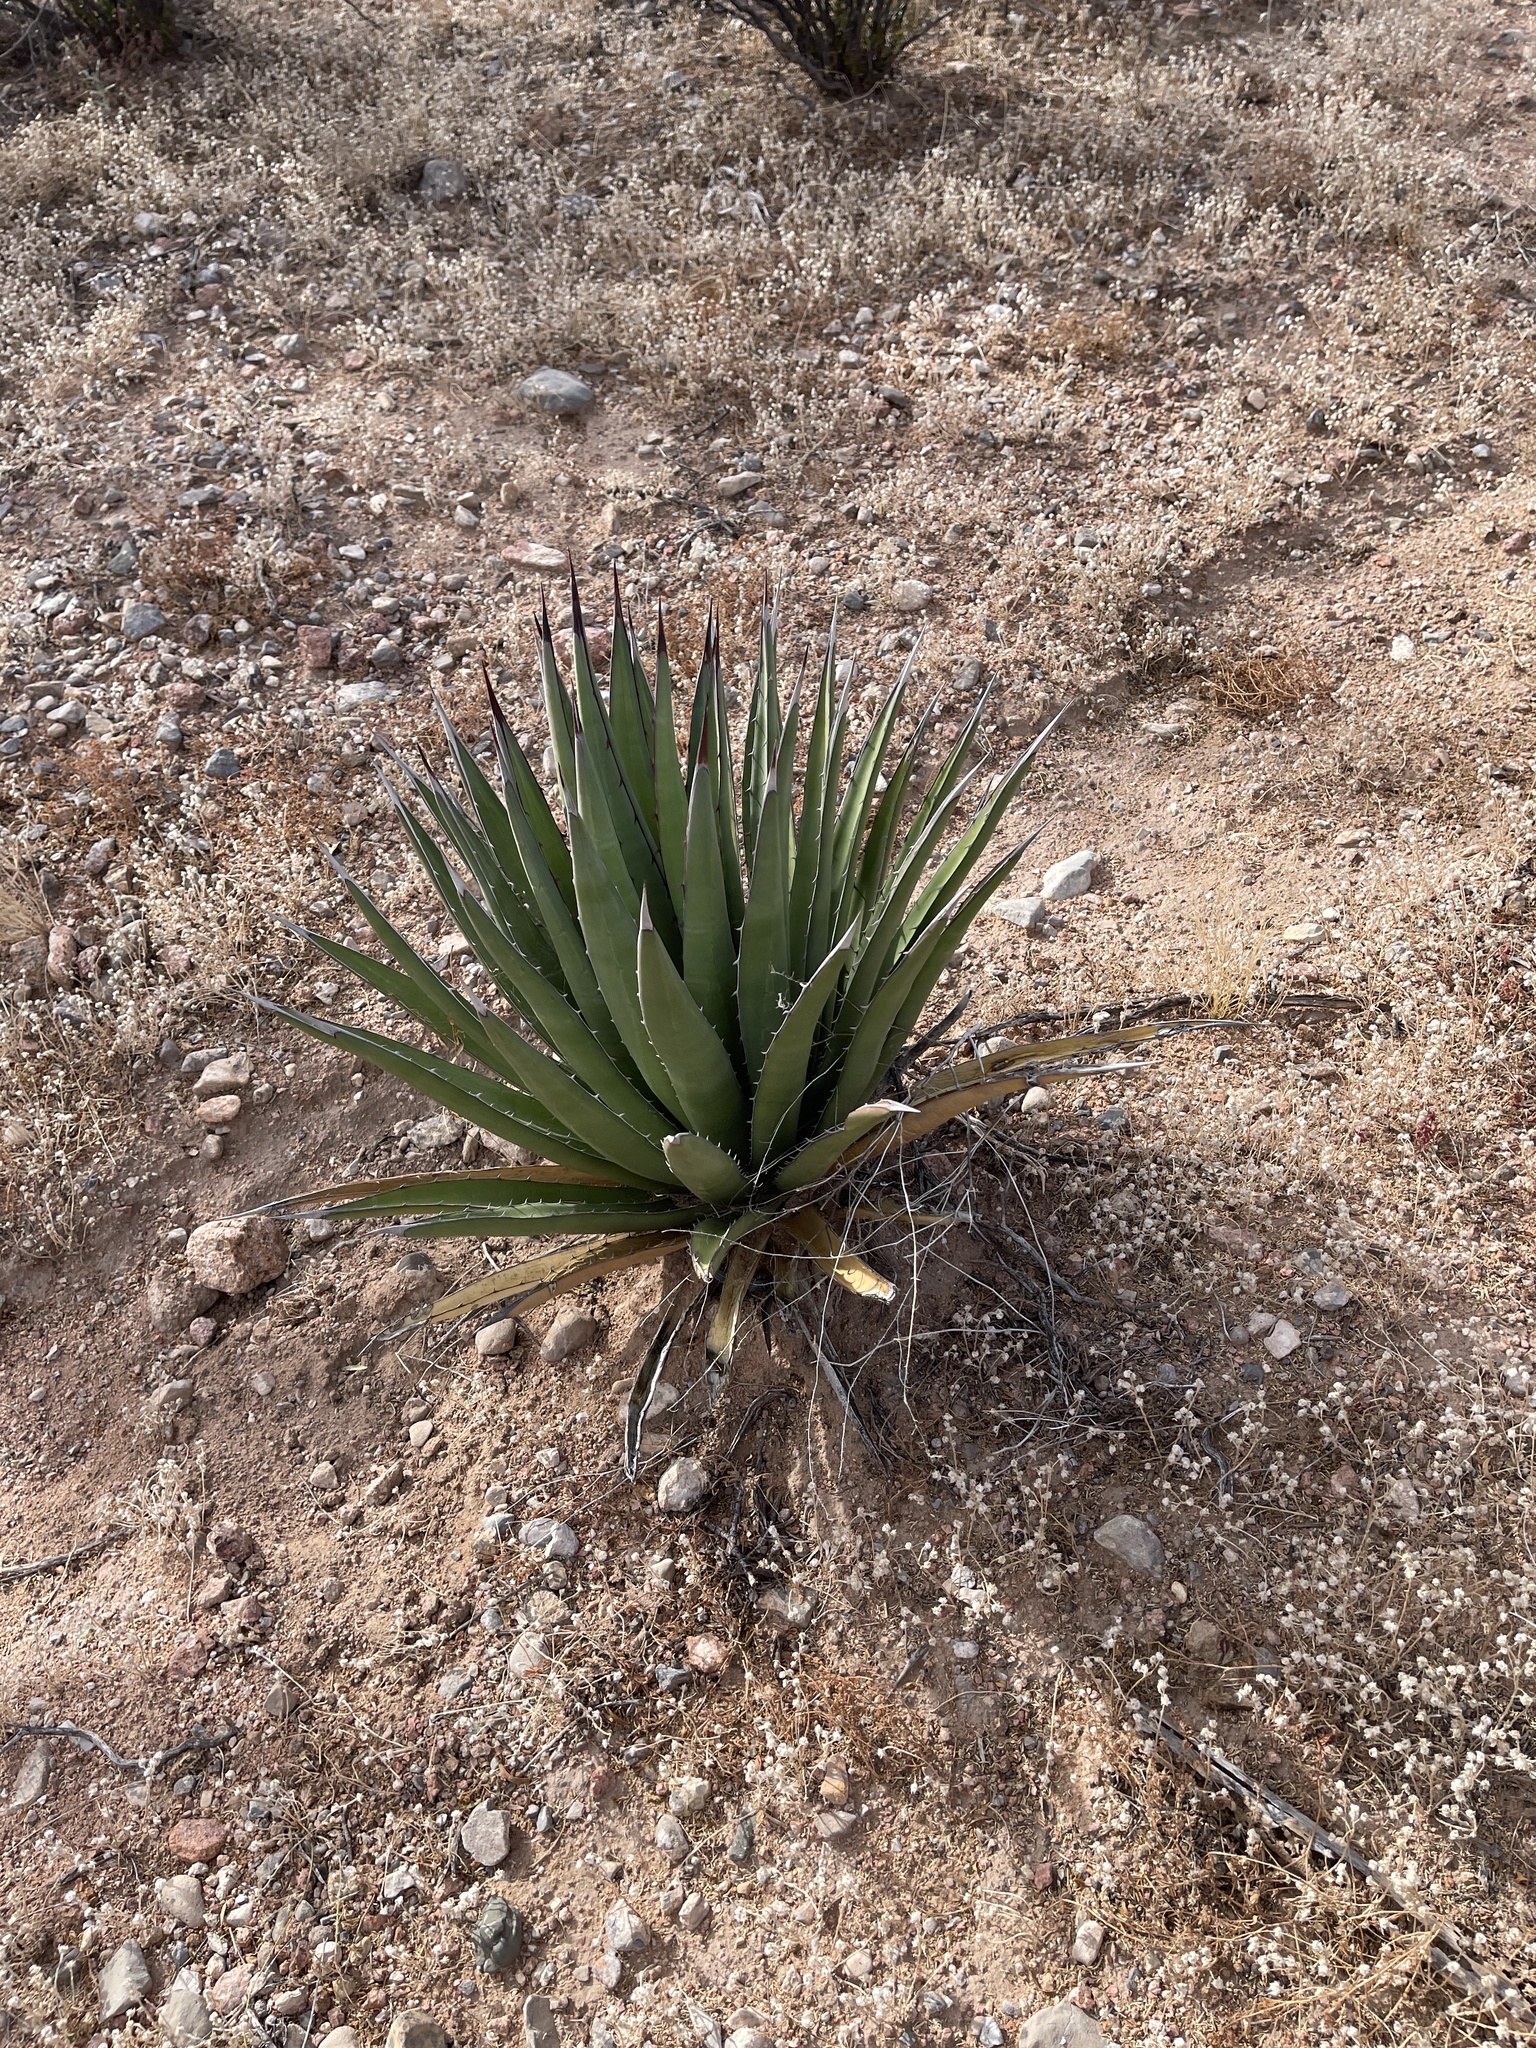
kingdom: Plantae
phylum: Tracheophyta
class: Liliopsida
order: Asparagales
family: Asparagaceae
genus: Agave
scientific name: Agave lechuguilla
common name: Lecheguilla agave
